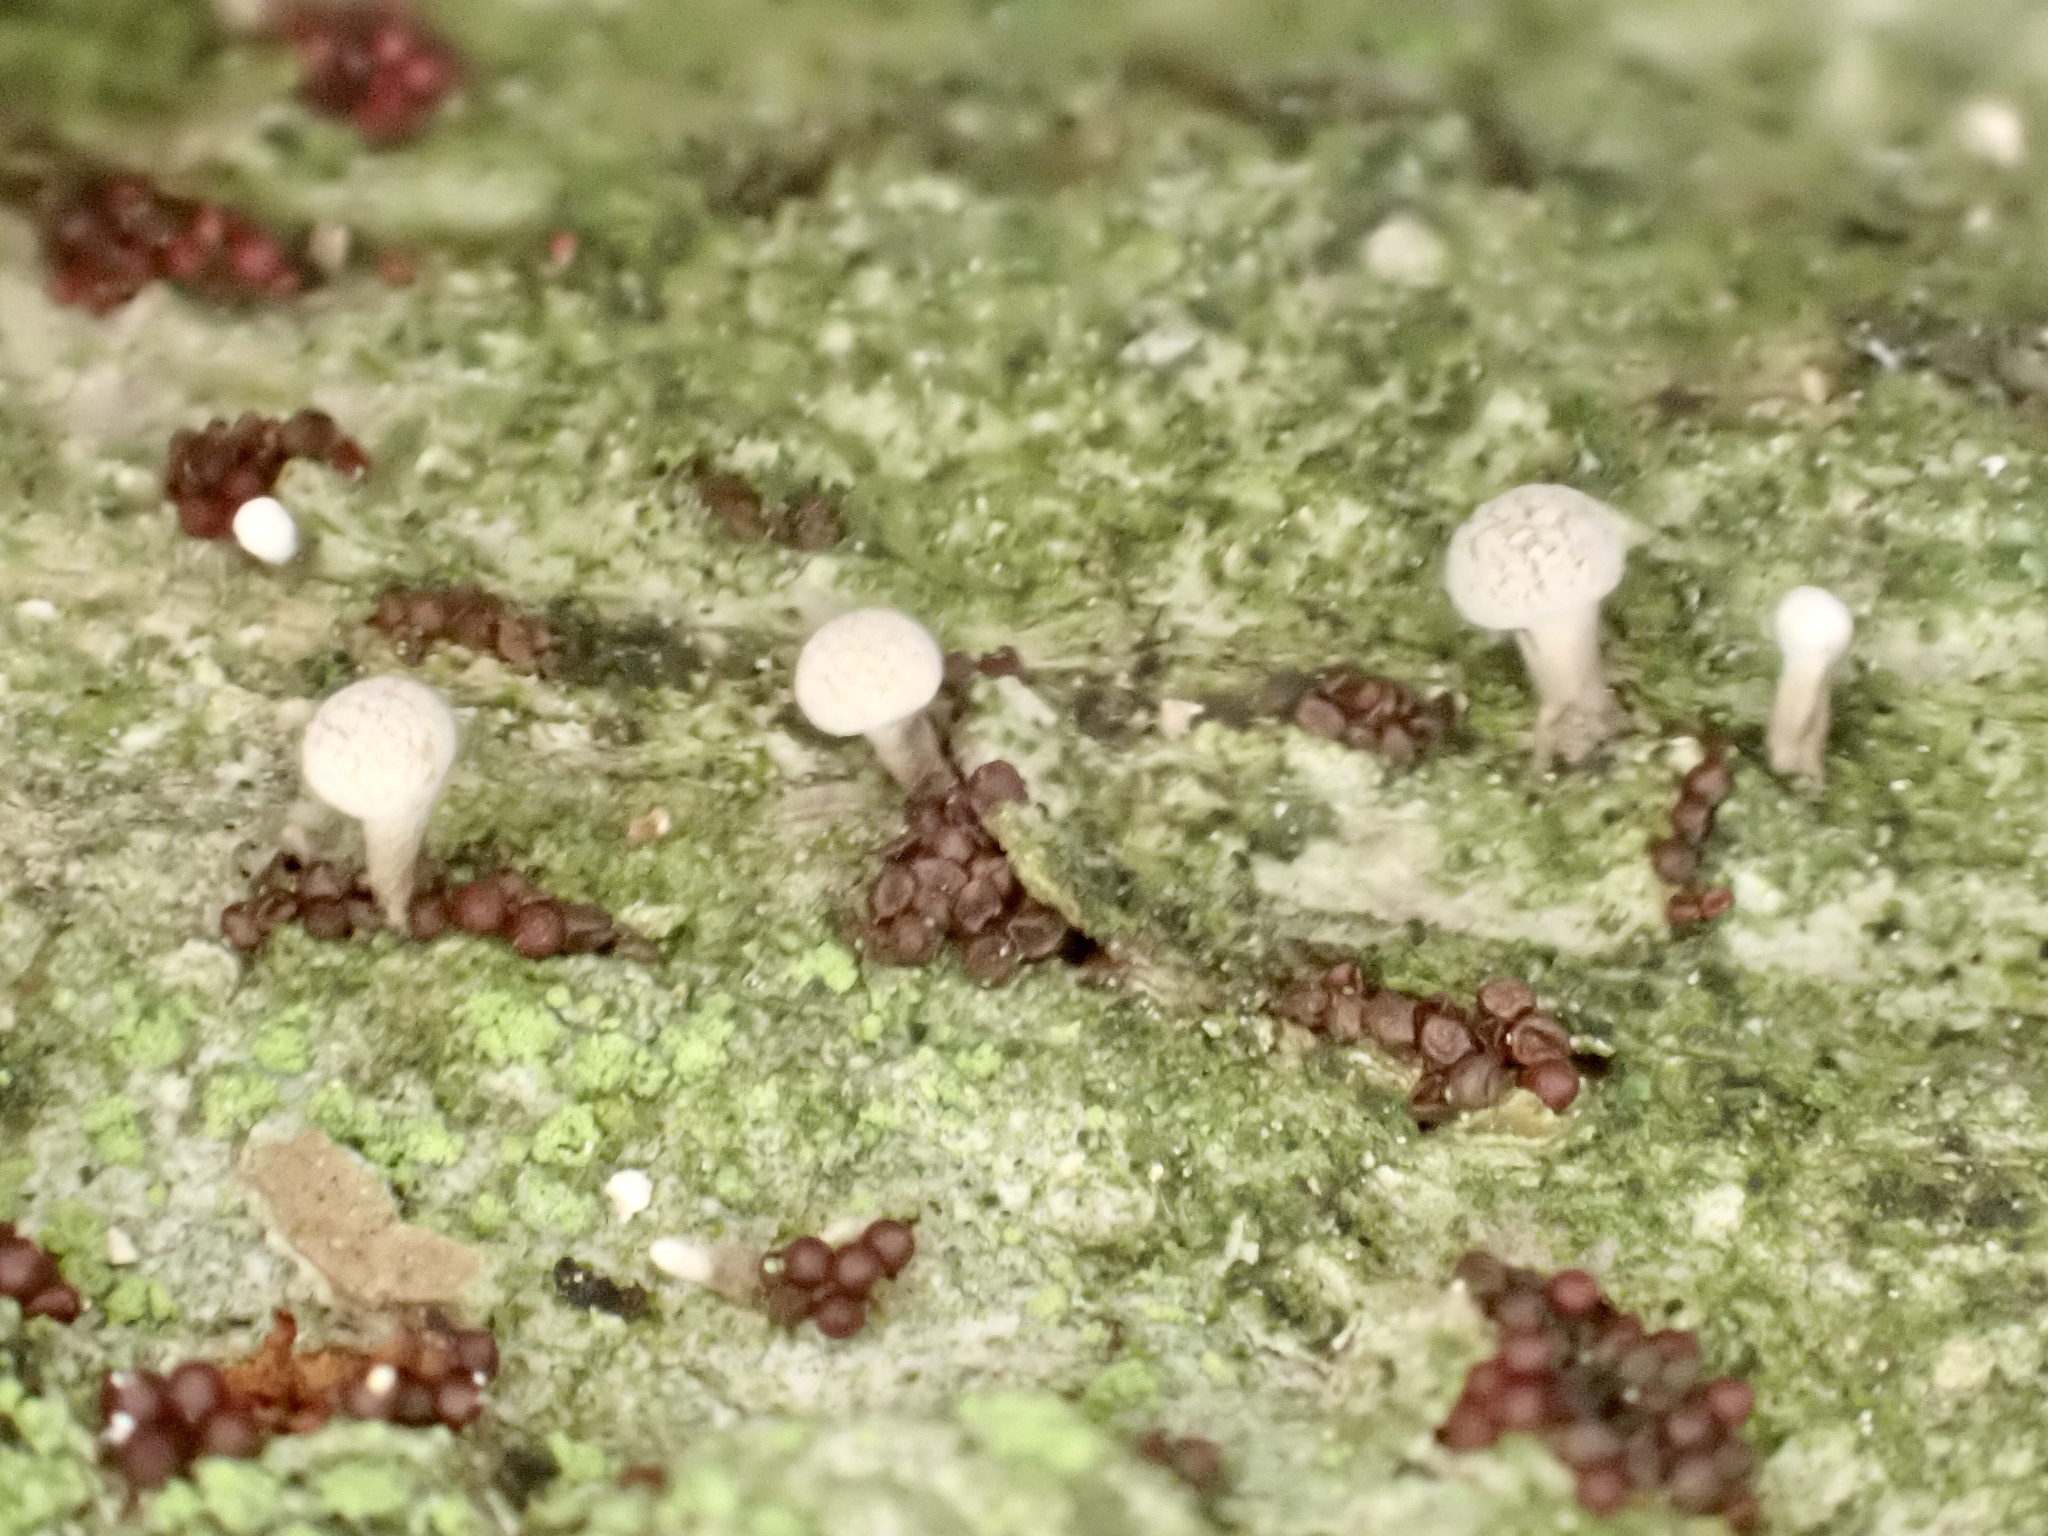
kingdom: Fungi
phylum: Basidiomycota
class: Atractiellomycetes
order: Atractiellales
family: Phleogenaceae
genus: Phleogena
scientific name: Phleogena faginea
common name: Fenugreek stalkball
